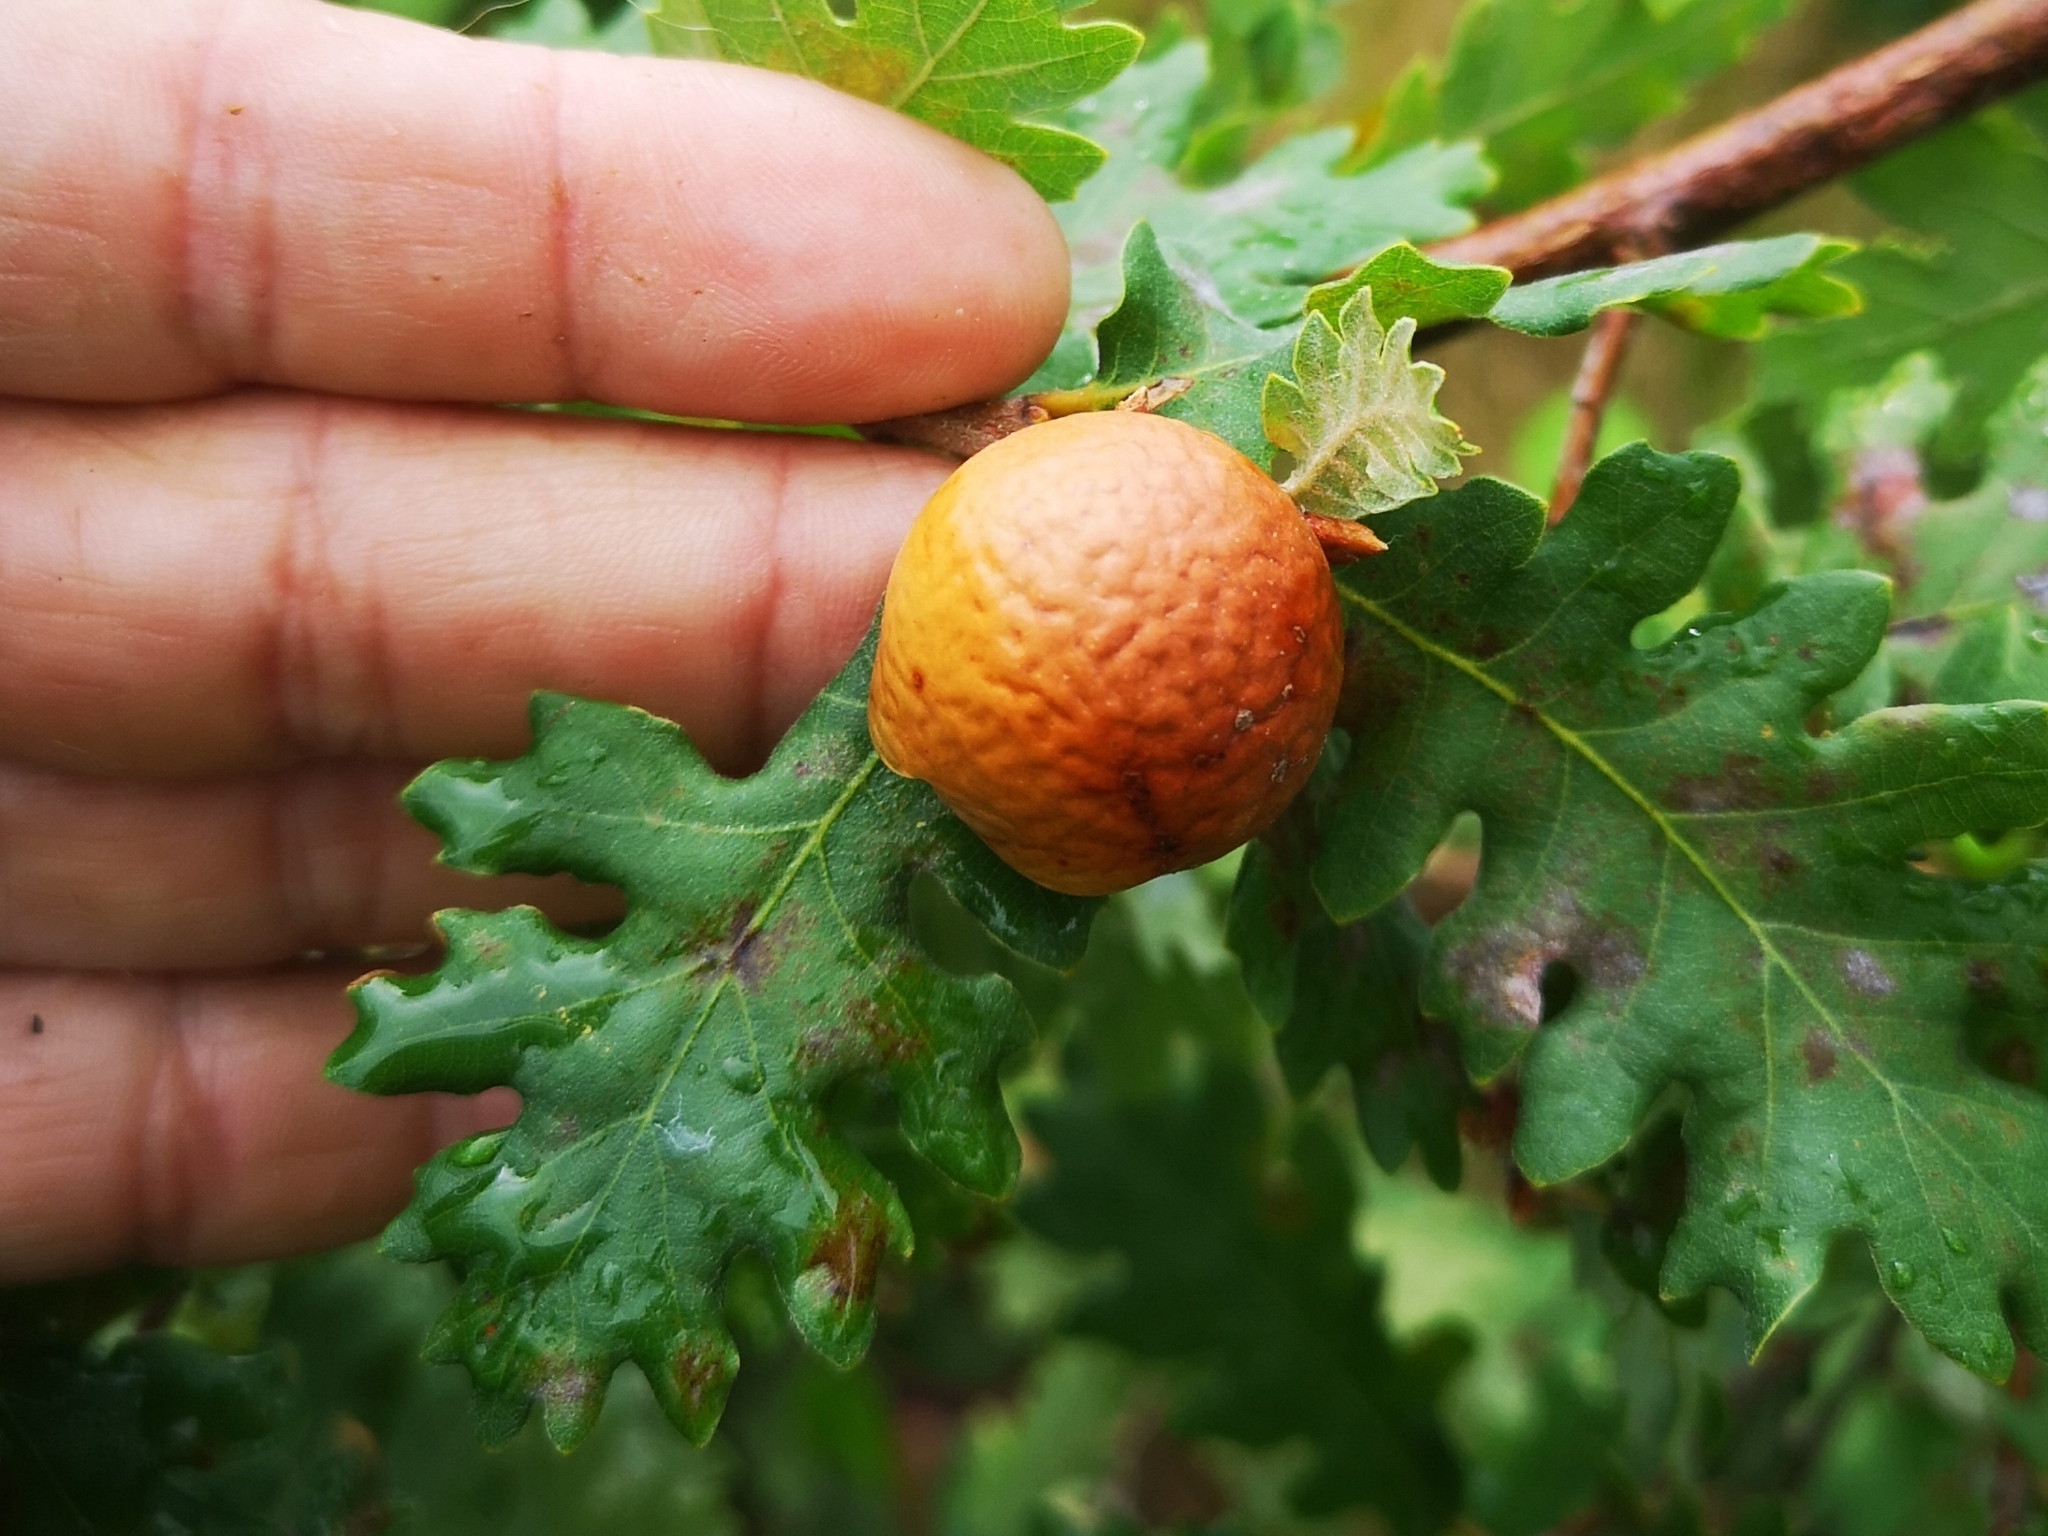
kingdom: Animalia
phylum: Arthropoda
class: Insecta
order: Hymenoptera
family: Cynipidae
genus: Andricus
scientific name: Andricus kollari
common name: Marble gall
